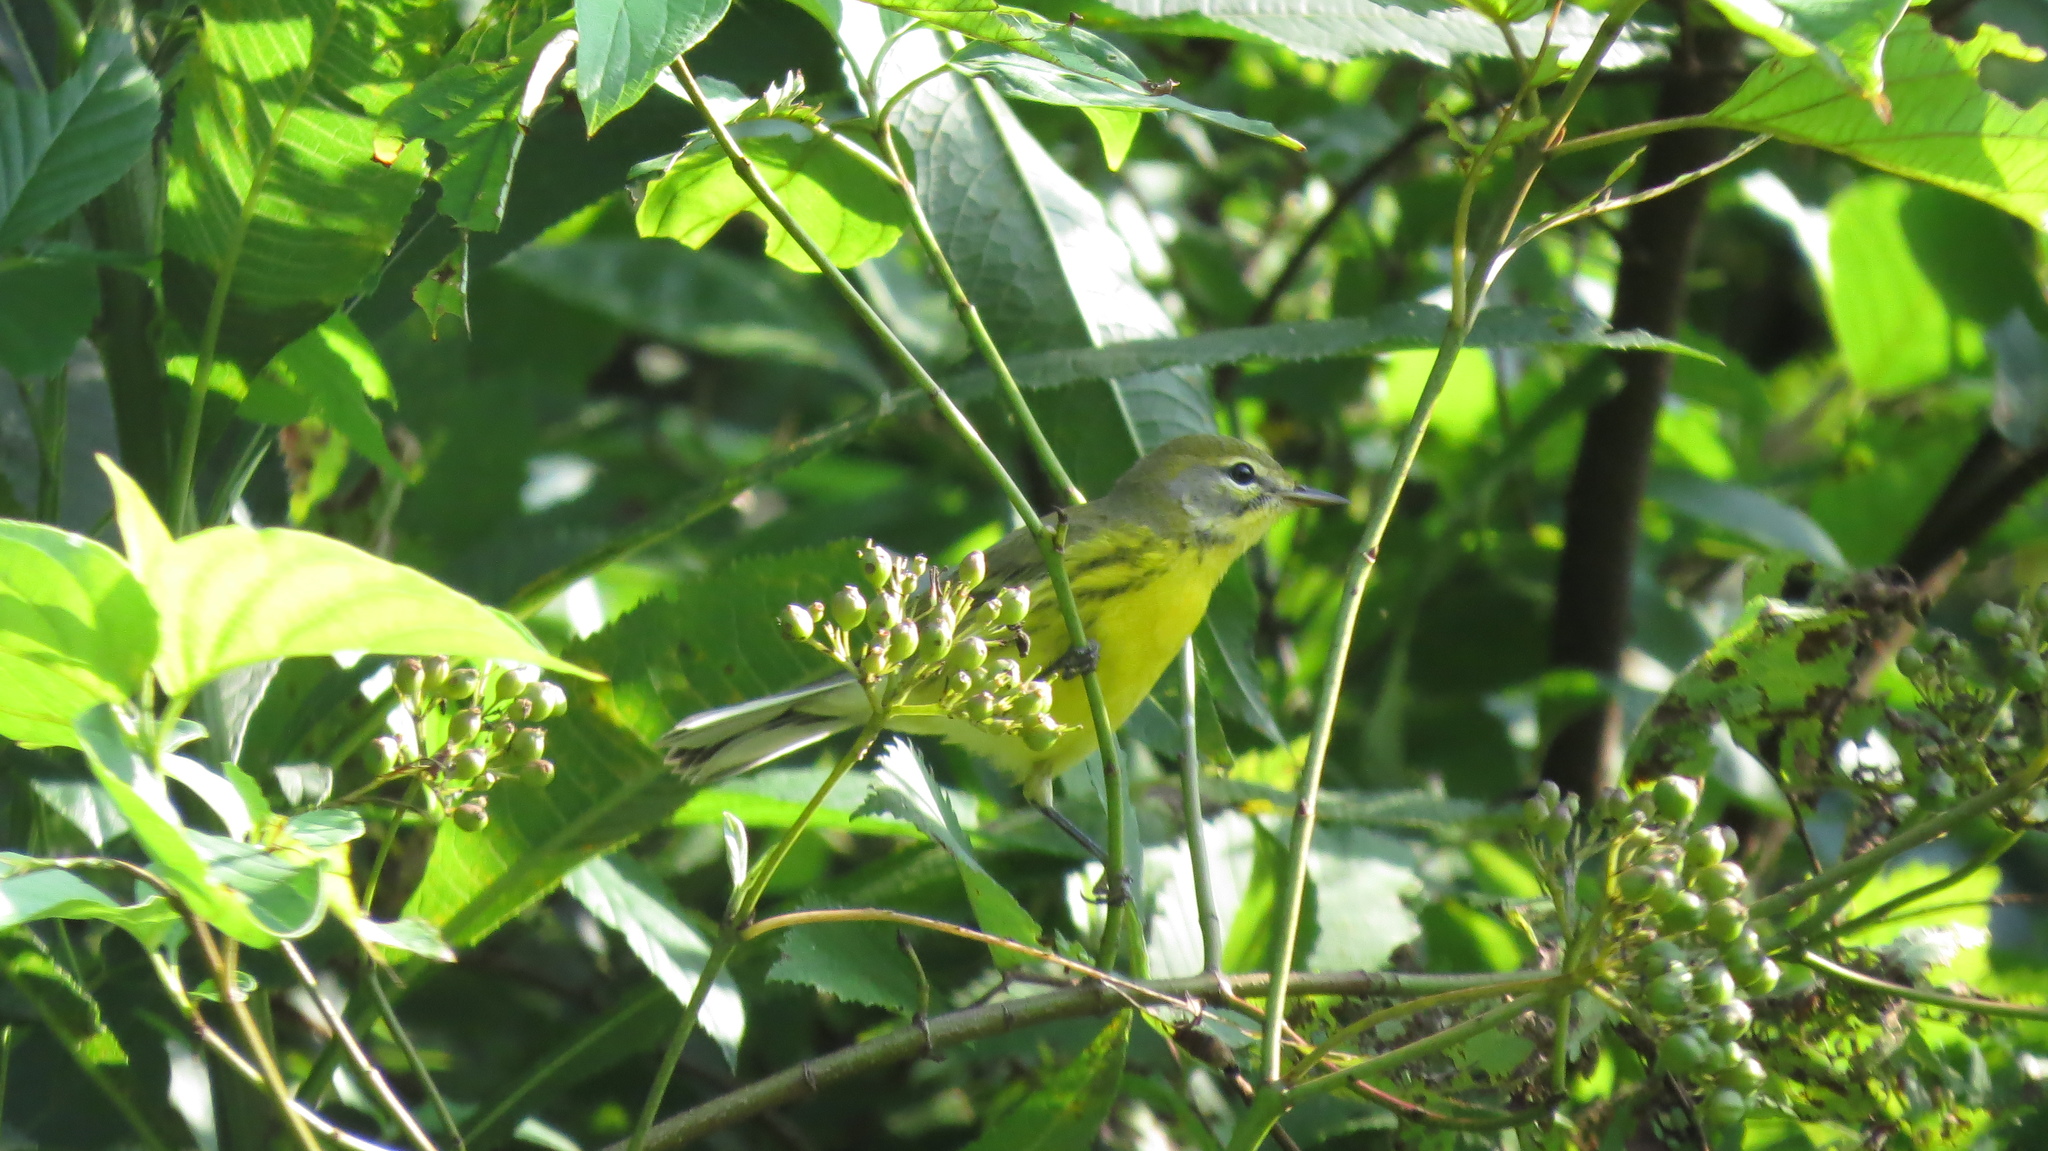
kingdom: Animalia
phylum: Chordata
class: Aves
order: Passeriformes
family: Parulidae
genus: Setophaga
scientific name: Setophaga discolor
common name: Prairie warbler
